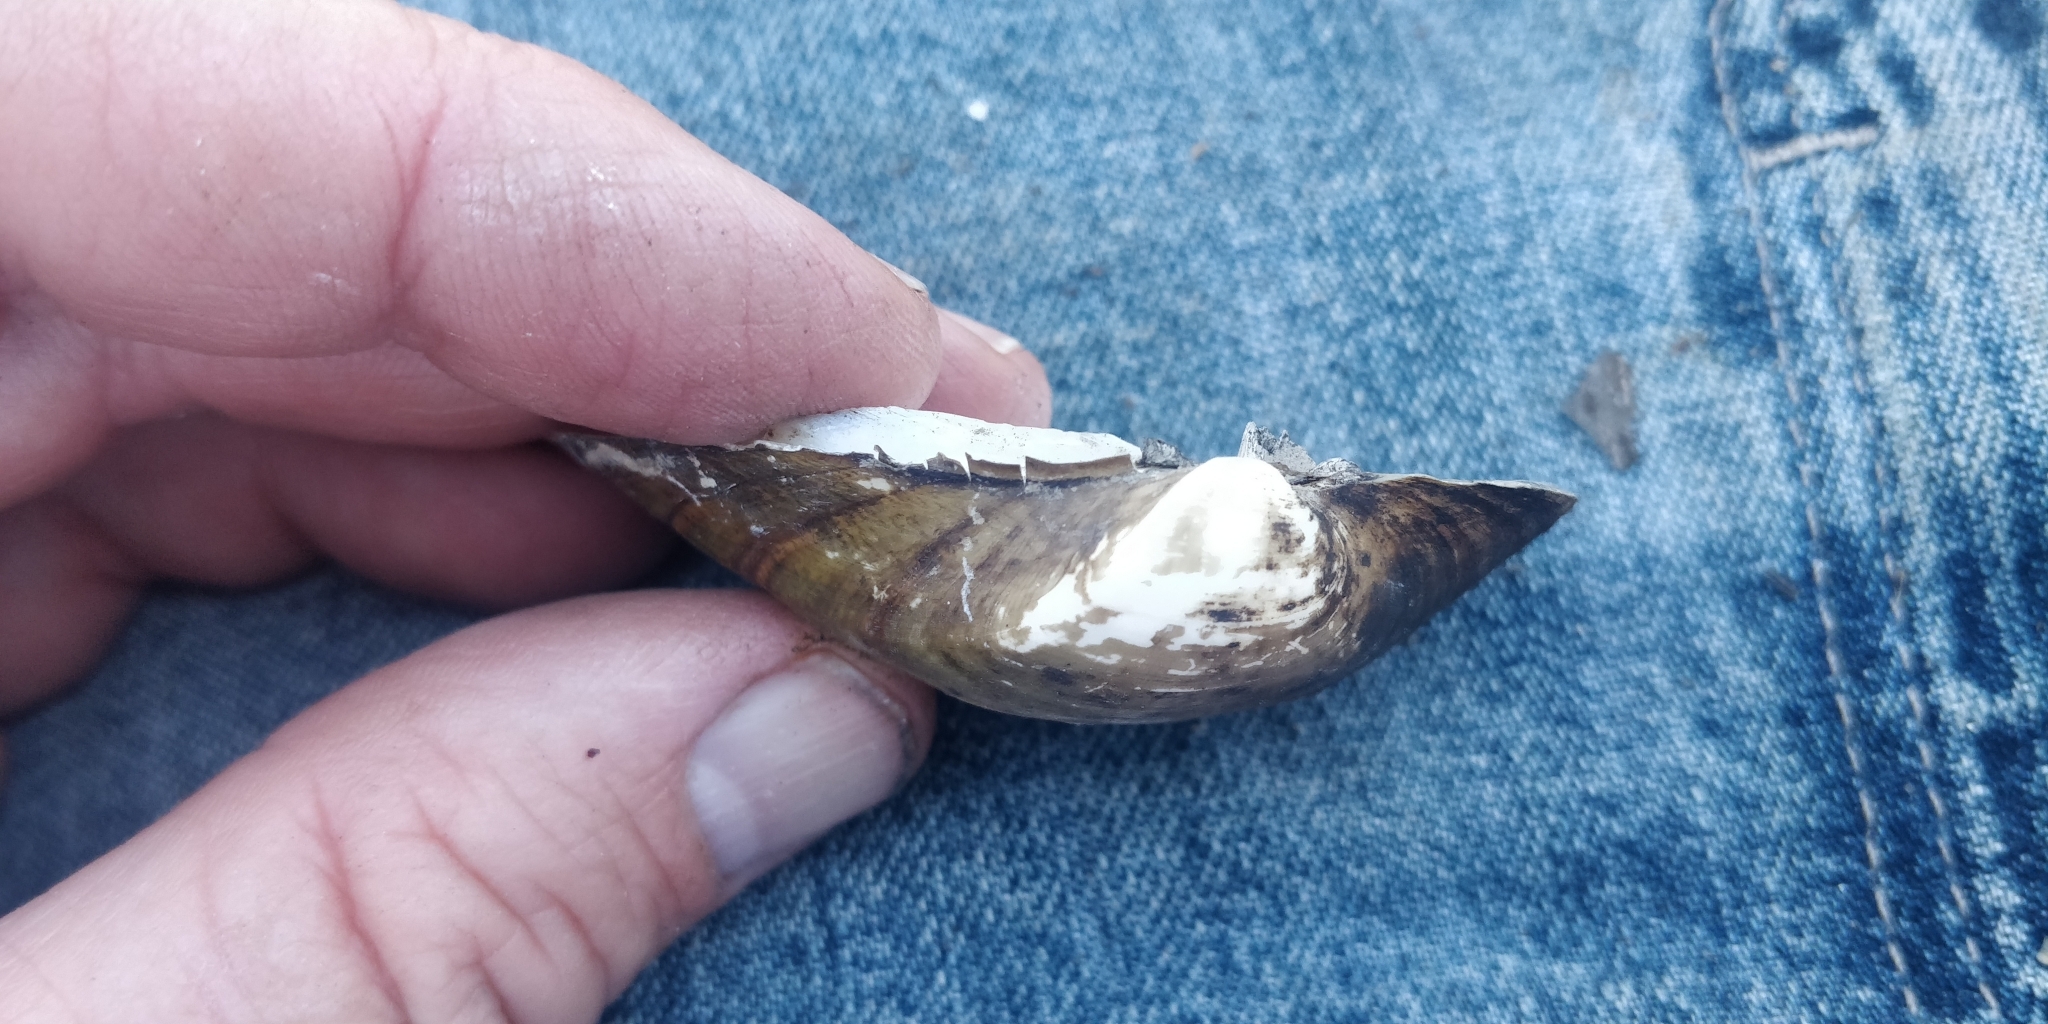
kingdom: Animalia
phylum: Mollusca
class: Bivalvia
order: Unionida
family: Unionidae
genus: Truncilla
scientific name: Truncilla truncata
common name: Deertoe
